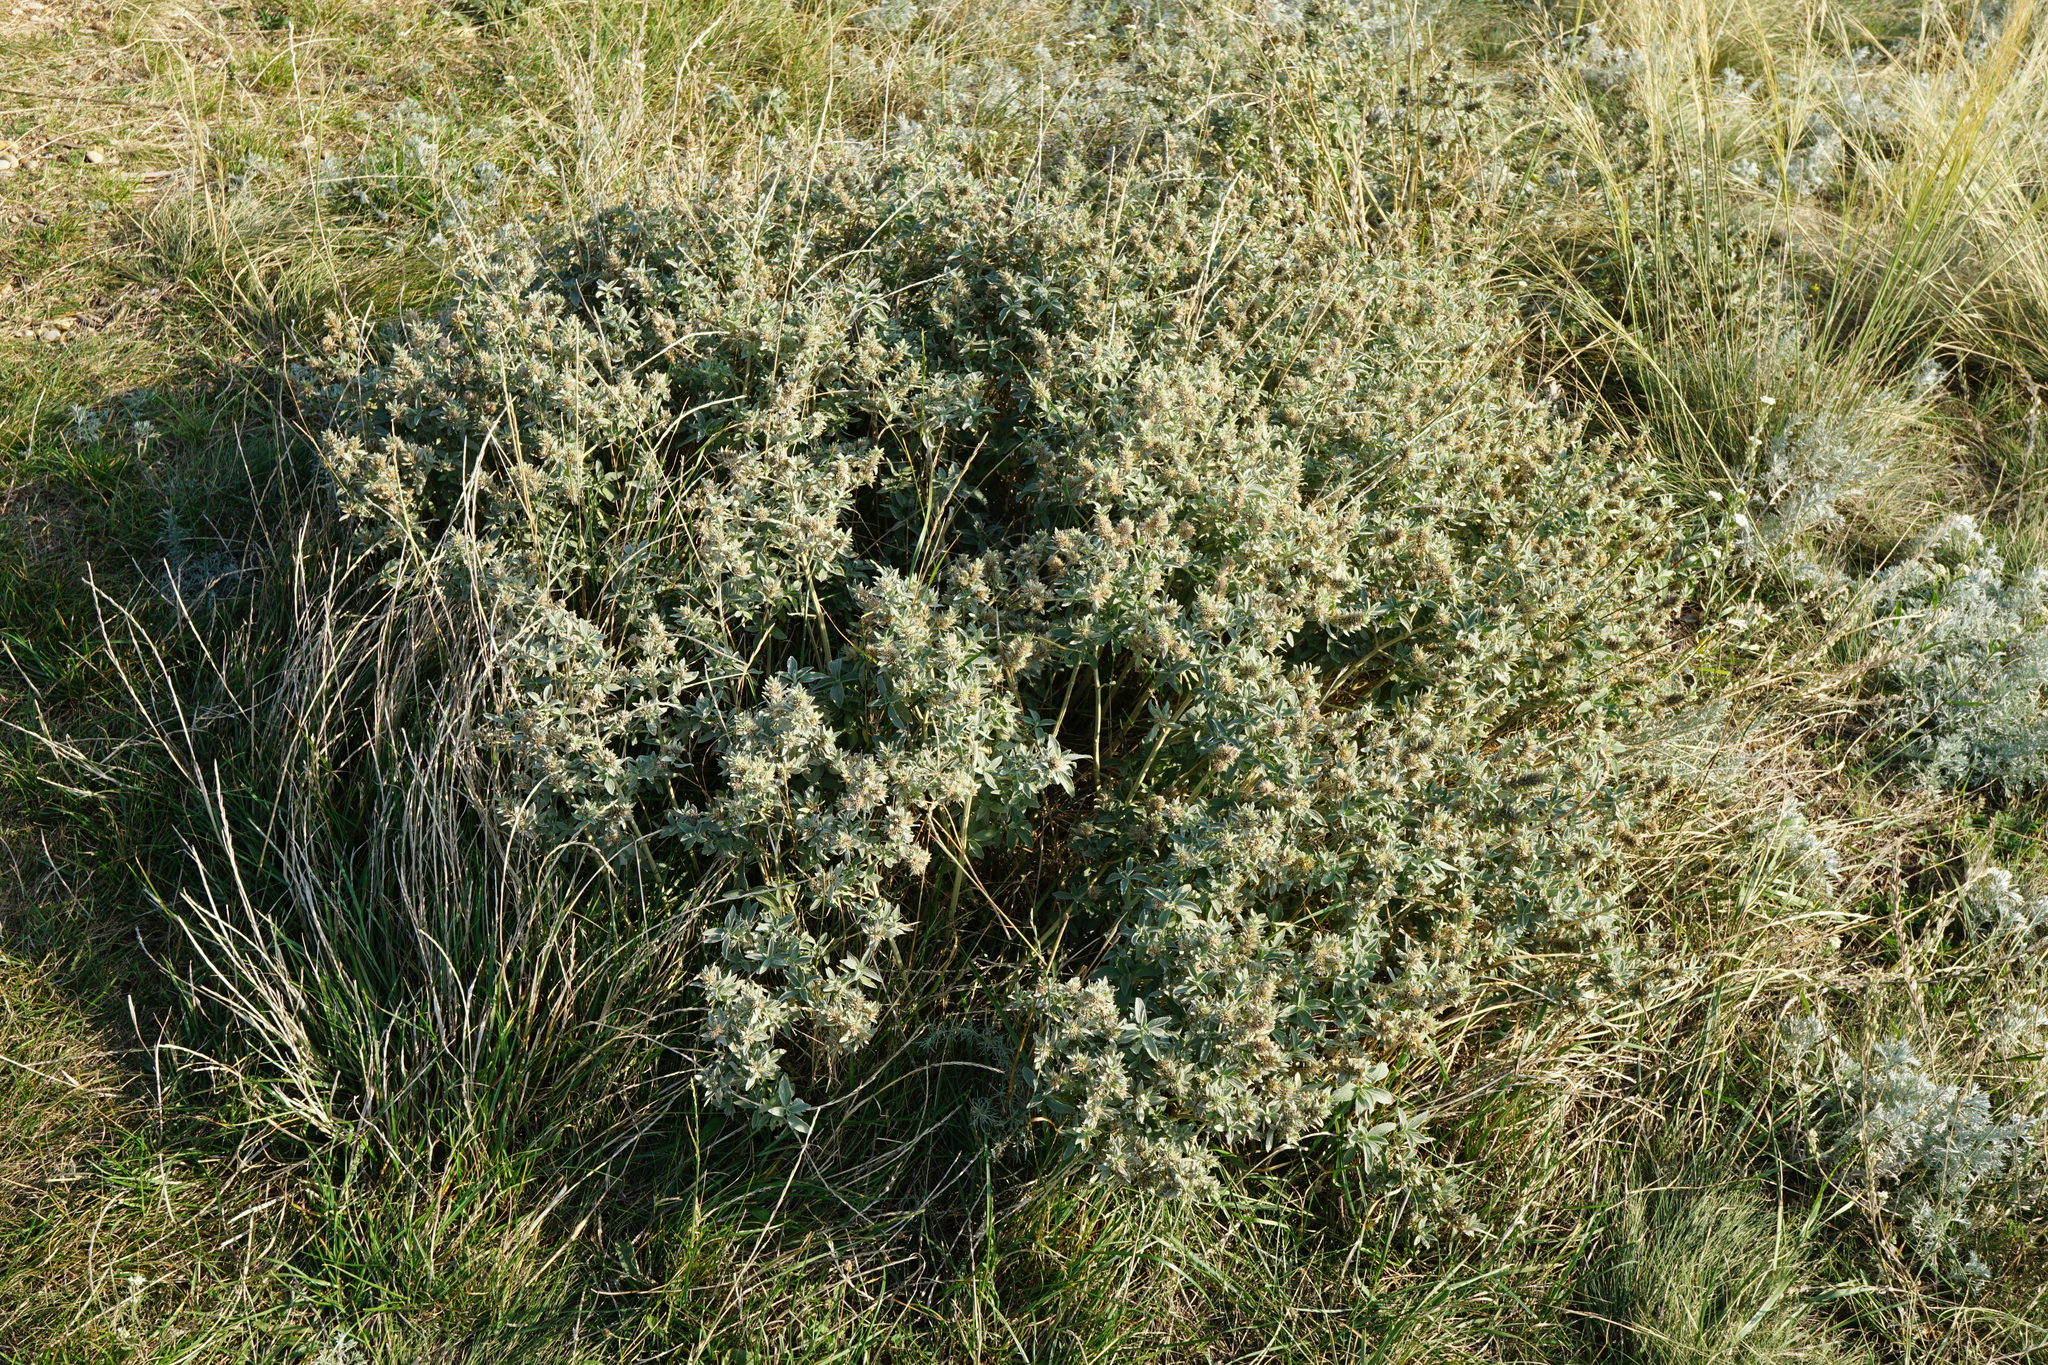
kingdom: Plantae
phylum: Tracheophyta
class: Magnoliopsida
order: Lamiales
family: Lamiaceae
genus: Marrubium
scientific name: Marrubium peregrinum
